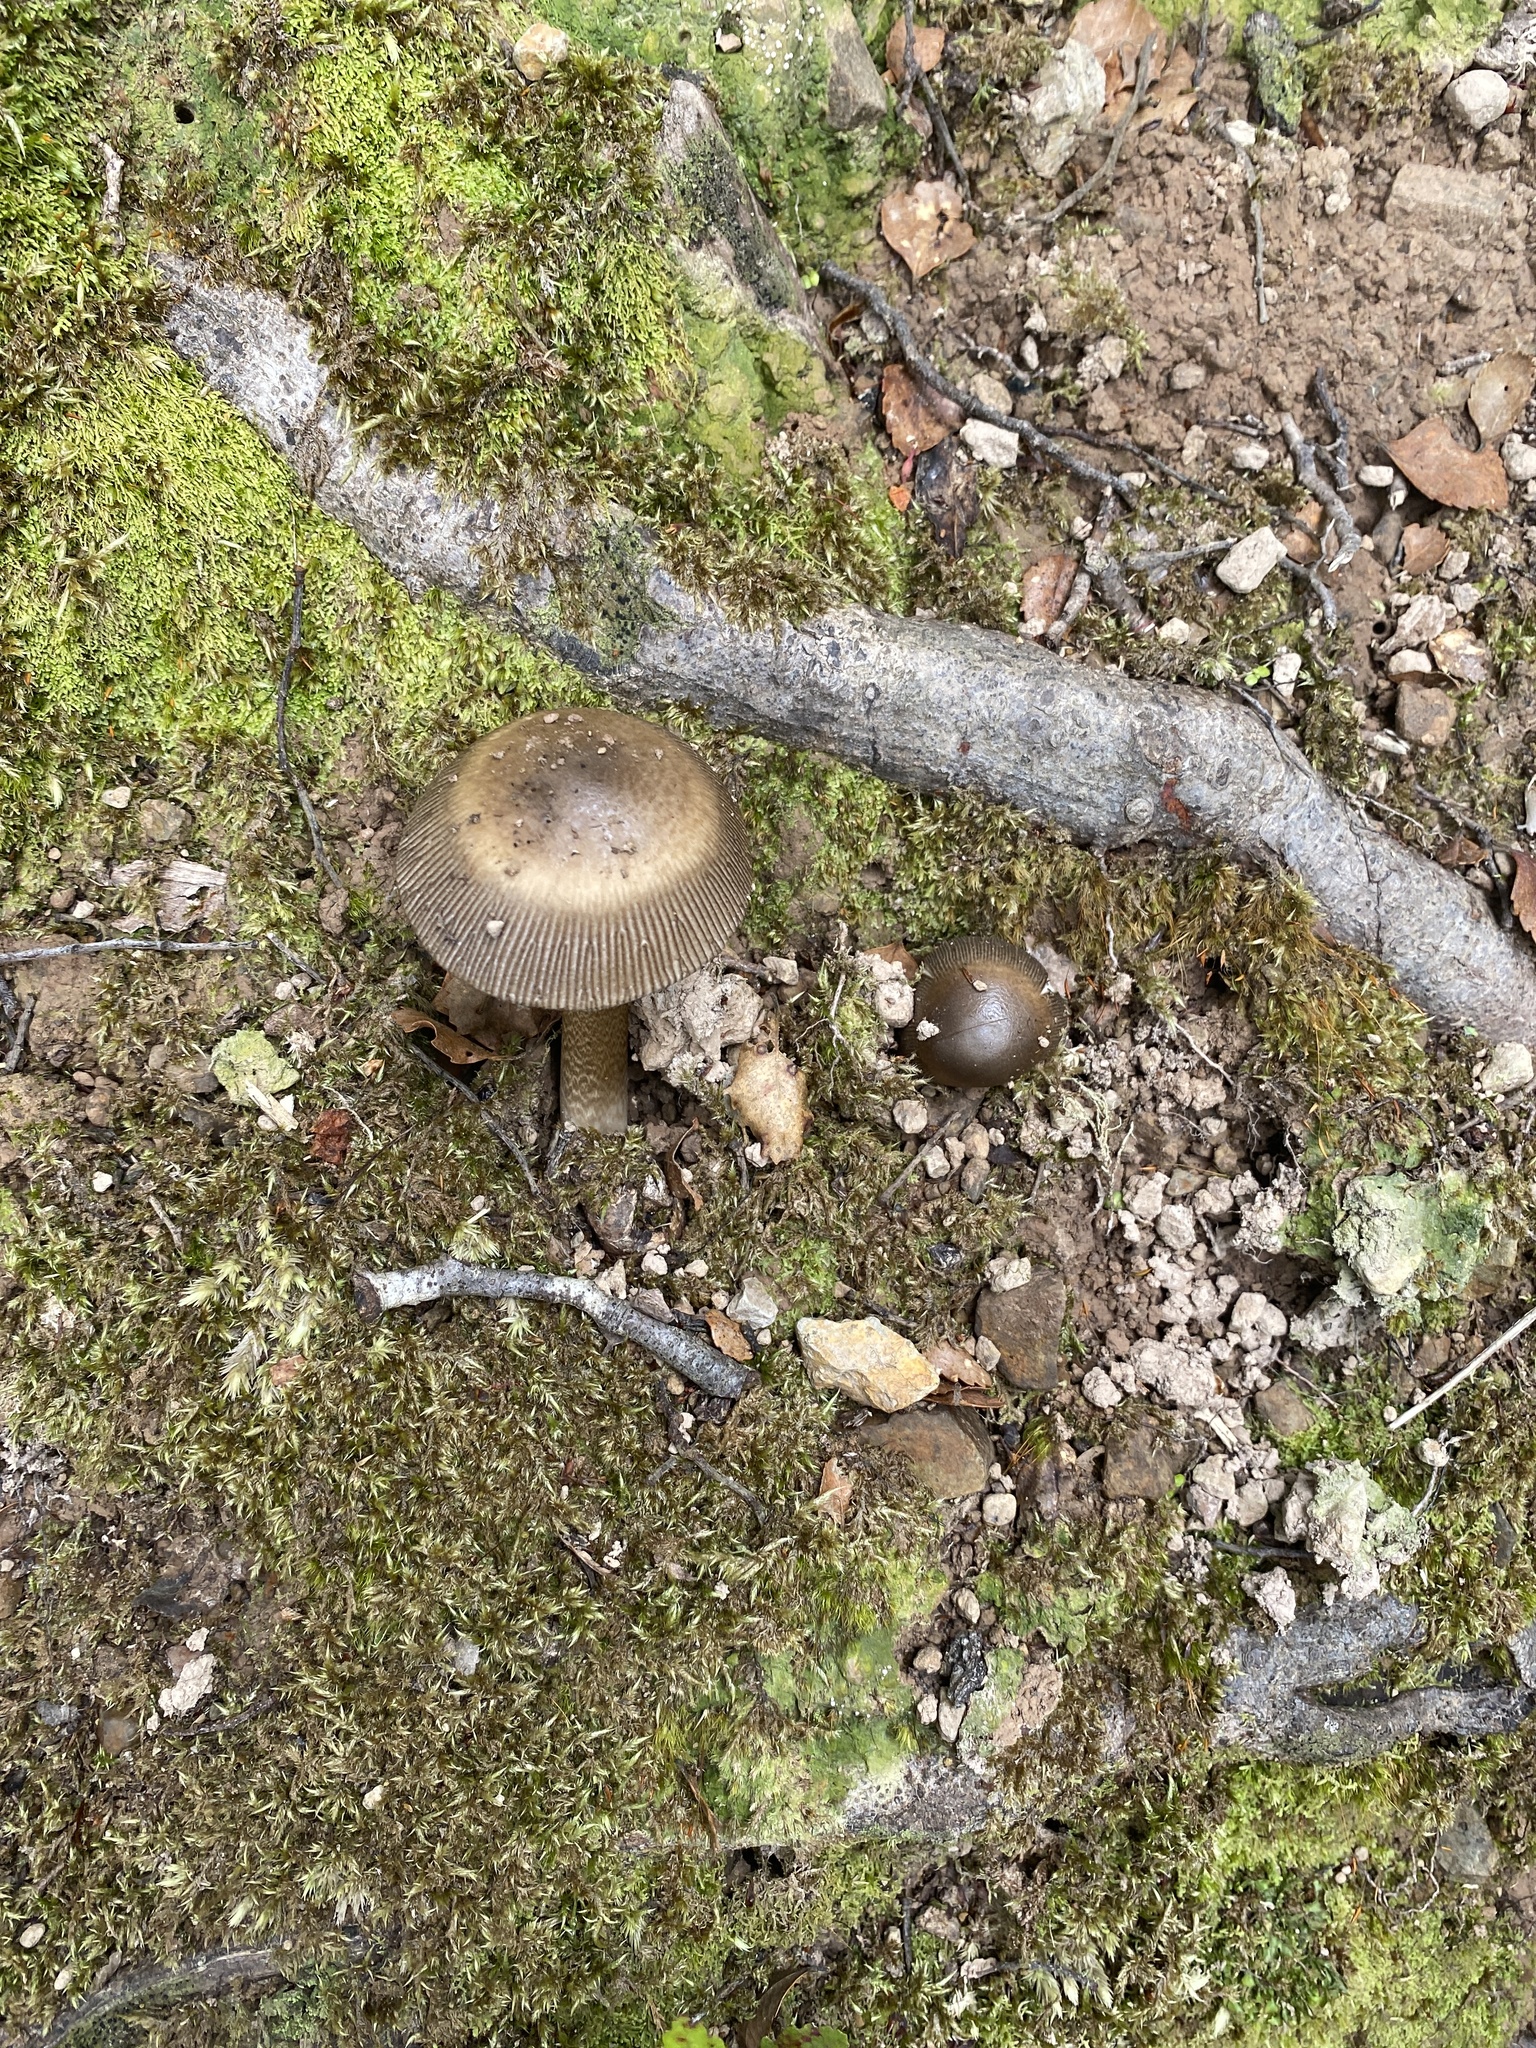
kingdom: Fungi
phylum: Basidiomycota
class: Agaricomycetes
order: Agaricales
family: Amanitaceae
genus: Amanita
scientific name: Amanita pekeoides
